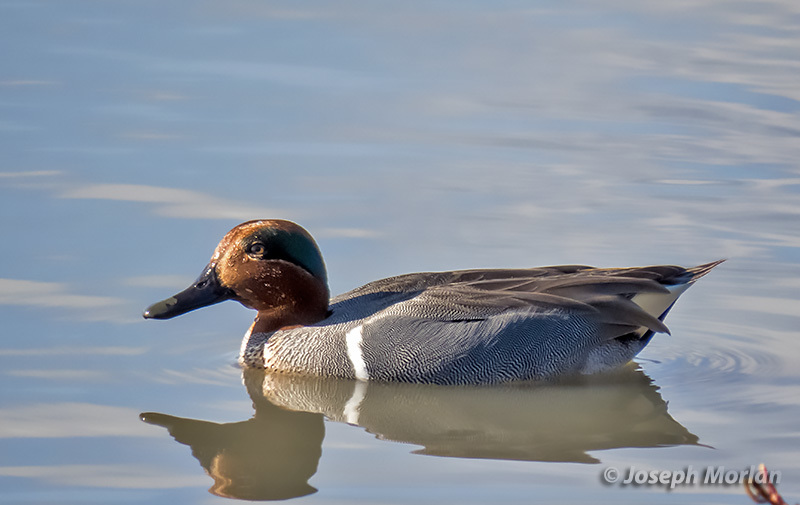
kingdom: Animalia
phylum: Chordata
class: Aves
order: Anseriformes
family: Anatidae
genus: Anas
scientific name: Anas crecca
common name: Eurasian teal
